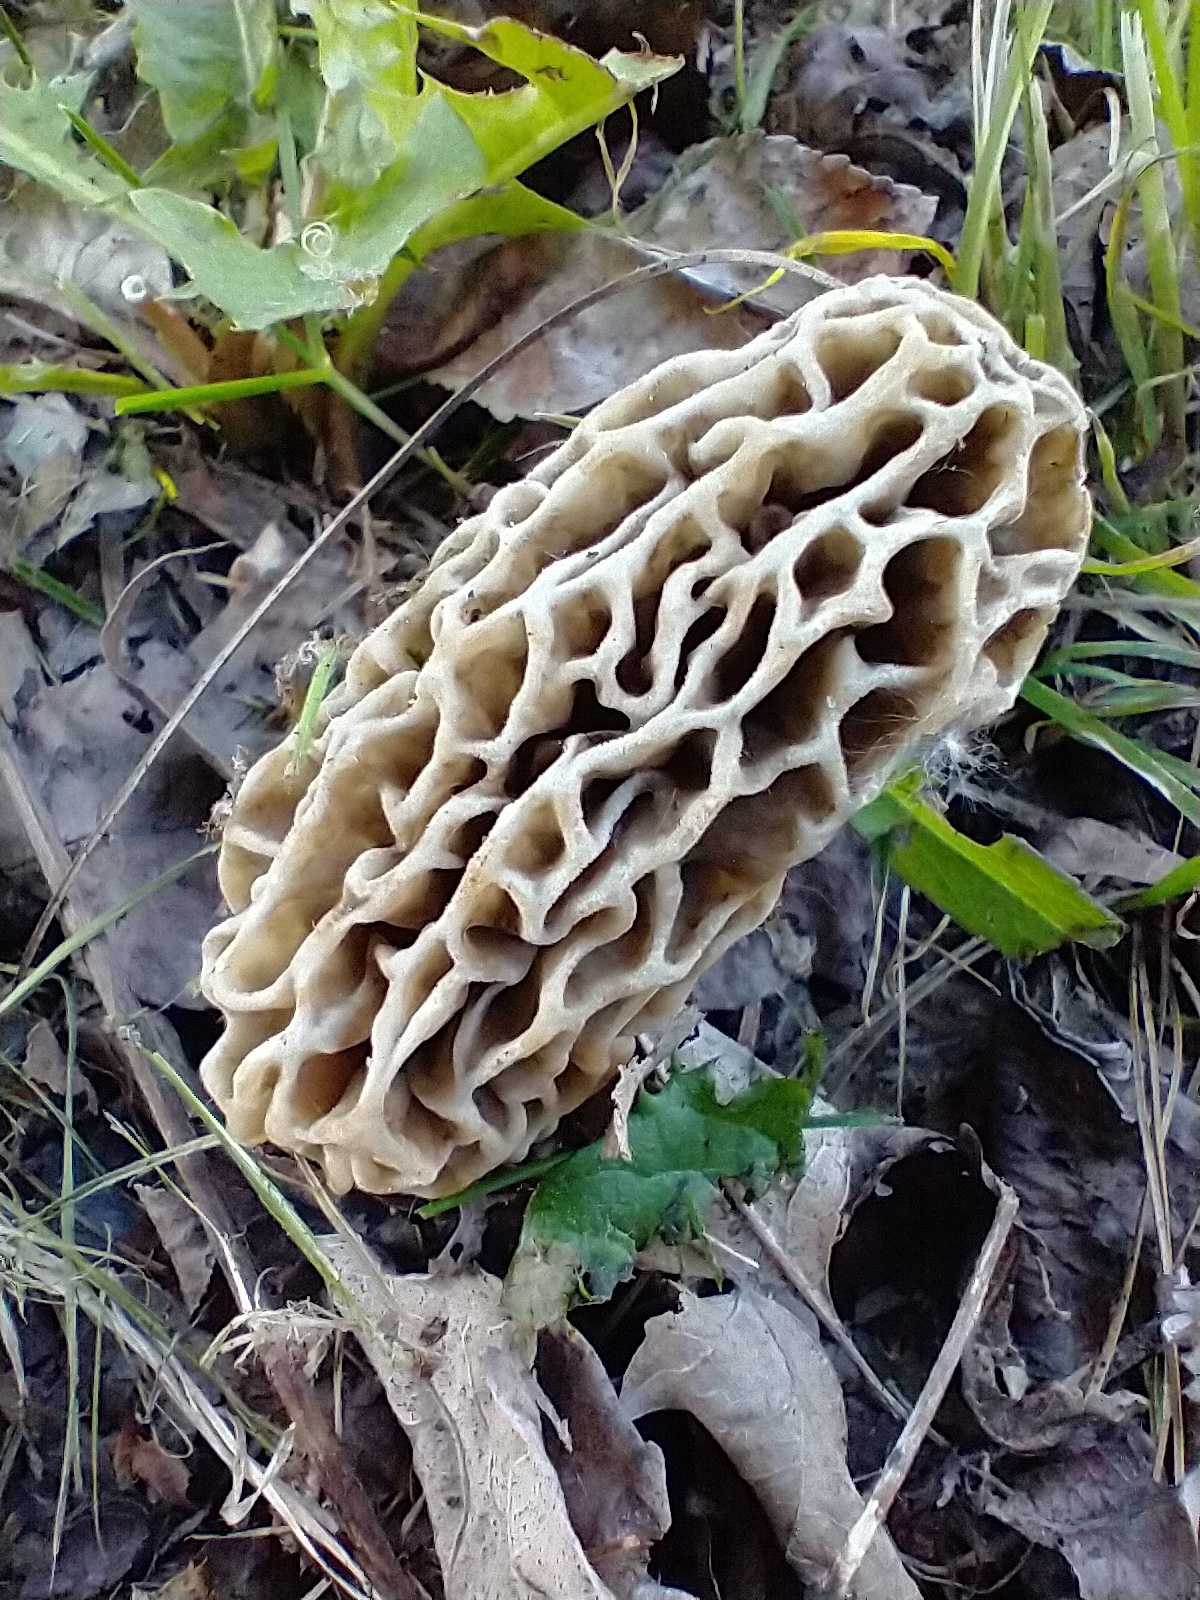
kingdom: Fungi
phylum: Ascomycota
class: Pezizomycetes
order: Pezizales
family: Morchellaceae
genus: Morchella
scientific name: Morchella
